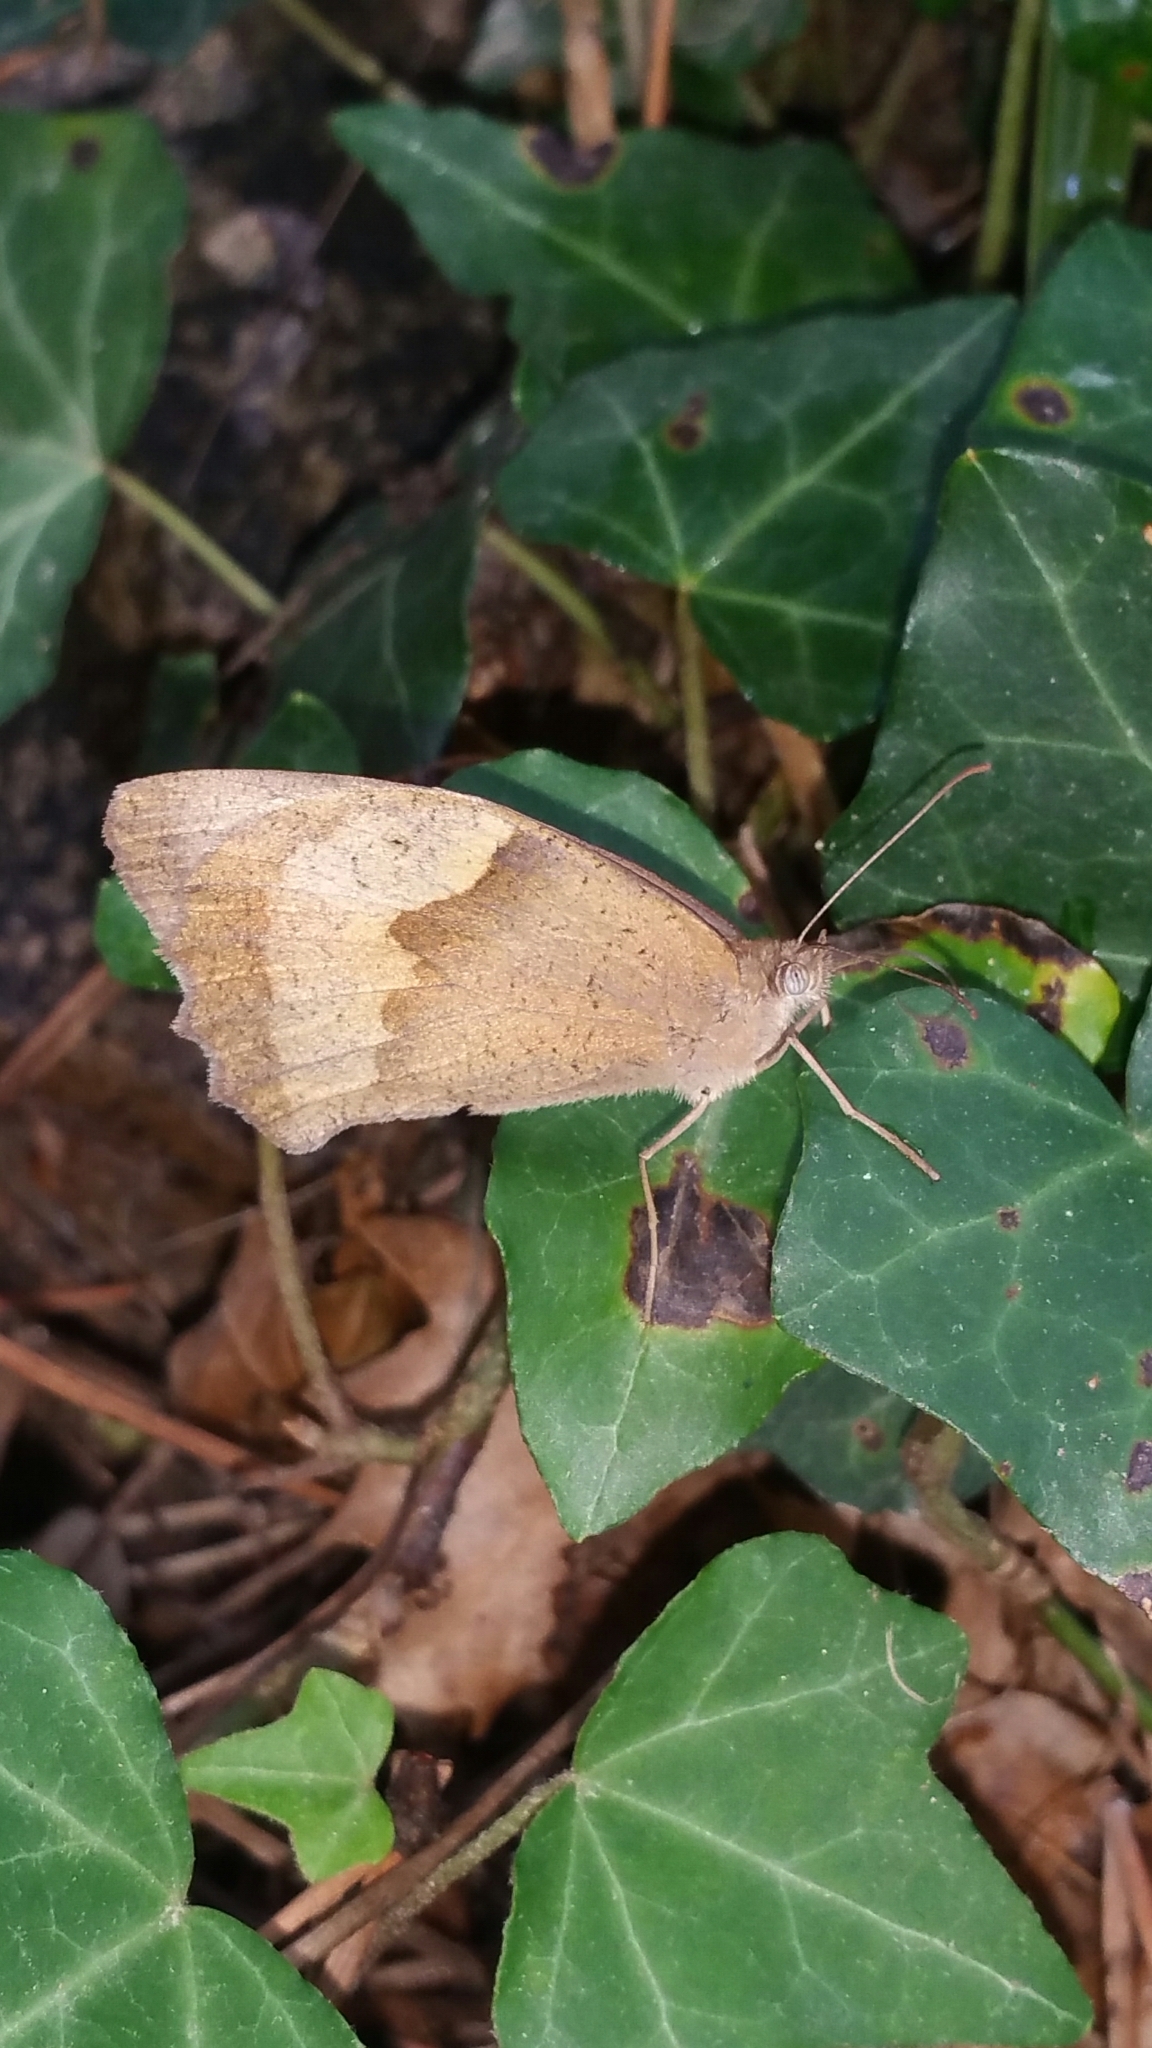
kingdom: Animalia
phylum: Arthropoda
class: Insecta
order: Lepidoptera
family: Nymphalidae
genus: Maniola
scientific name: Maniola jurtina
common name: Meadow brown
